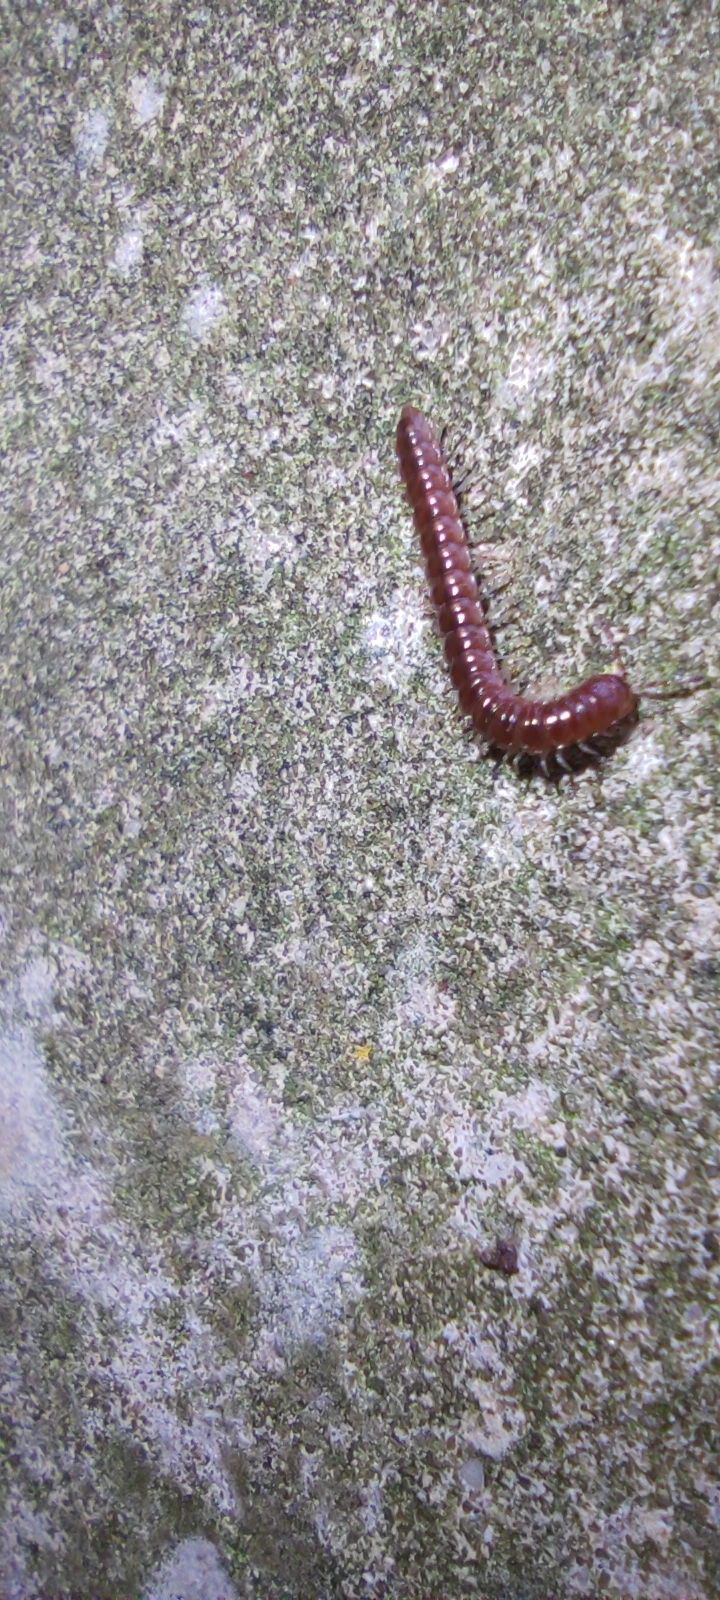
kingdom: Animalia
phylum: Arthropoda
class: Diplopoda
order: Polydesmida
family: Paradoxosomatidae
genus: Oxidus
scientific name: Oxidus gracilis
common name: Greenhouse millipede
